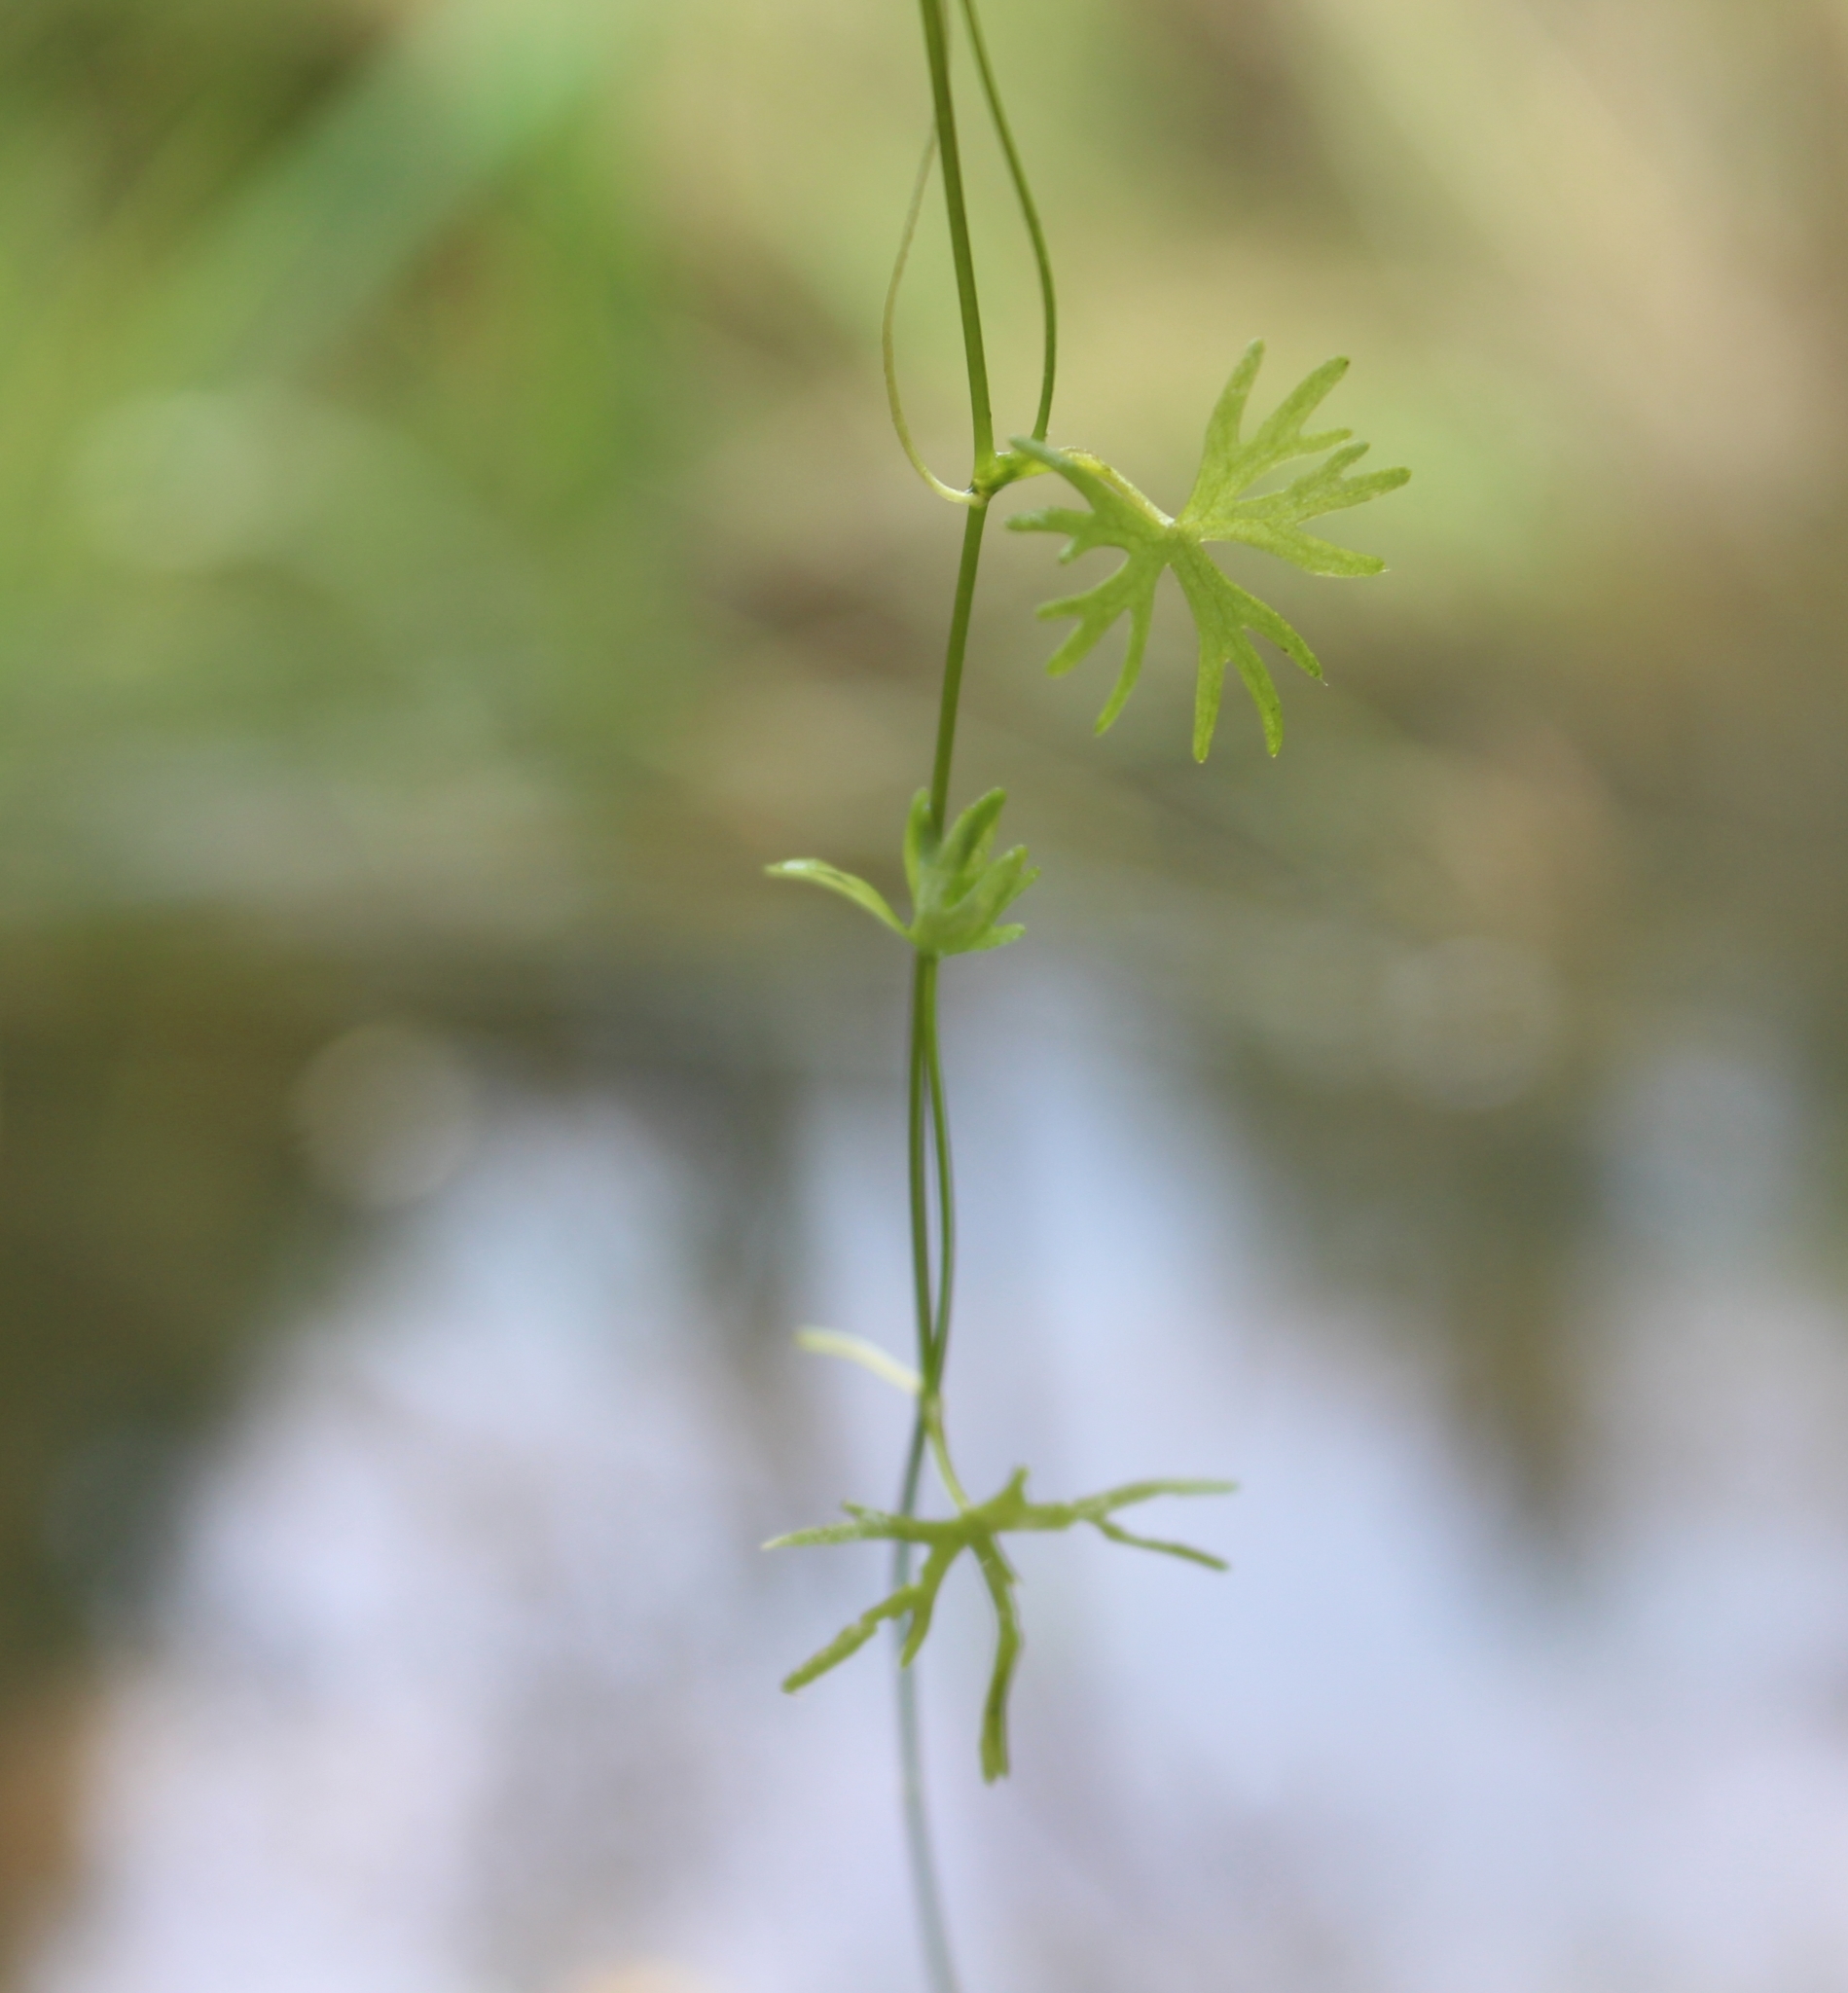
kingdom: Plantae
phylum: Tracheophyta
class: Magnoliopsida
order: Ranunculales
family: Ranunculaceae
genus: Ranunculus
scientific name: Ranunculus gmelinii
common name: Gmelin's buttercup
